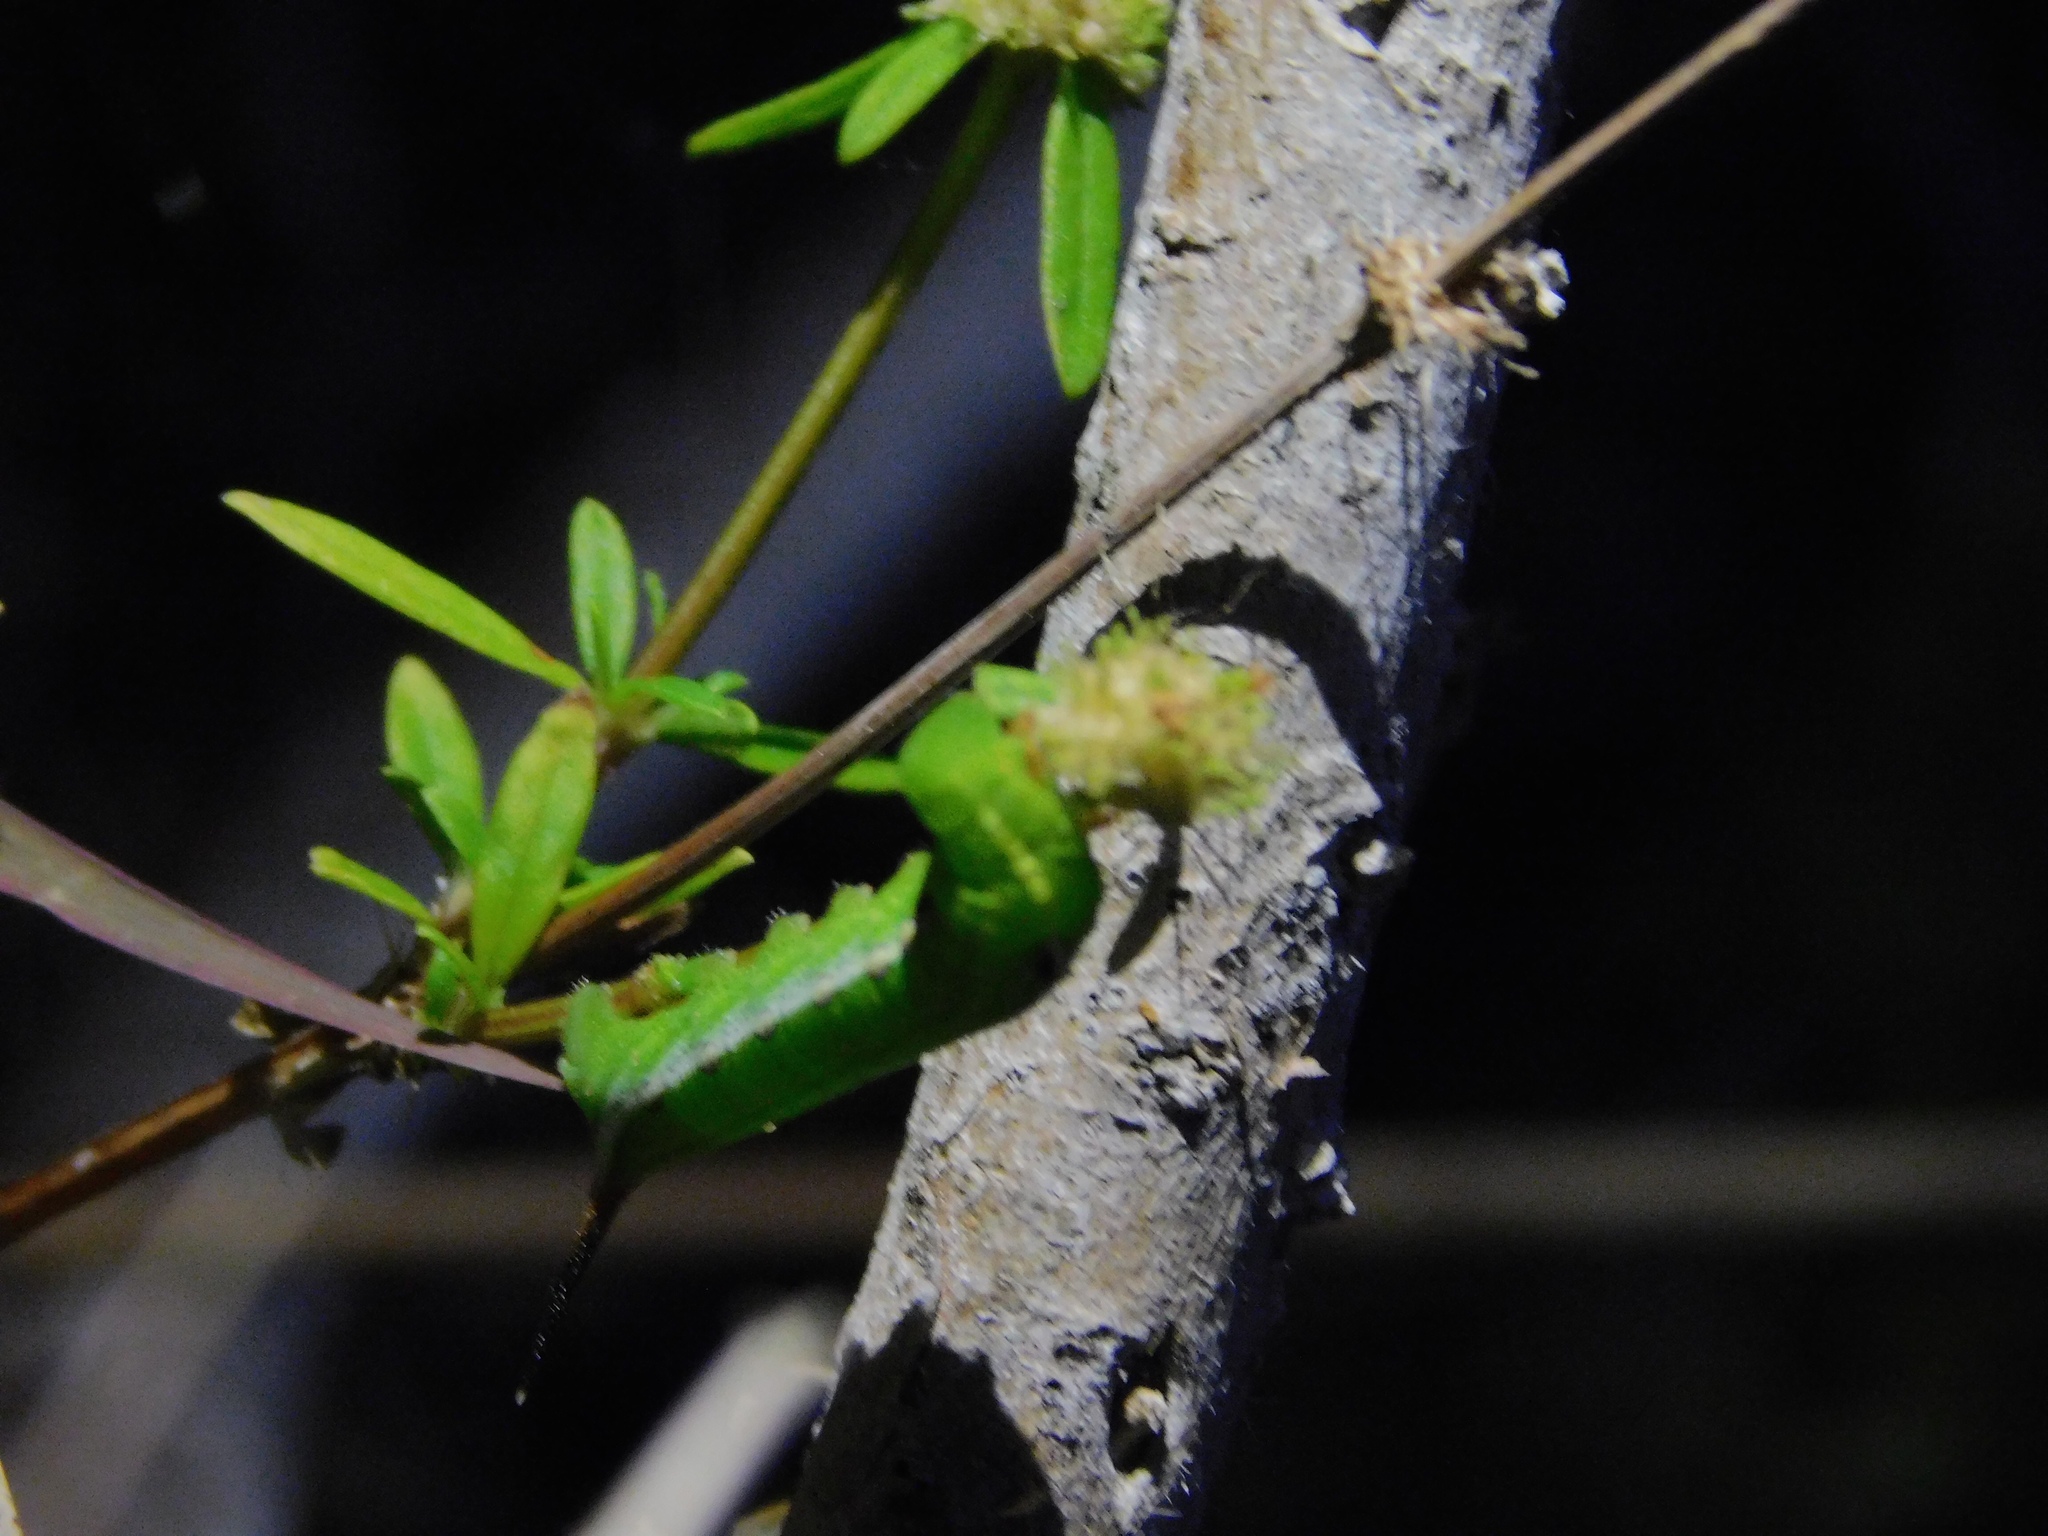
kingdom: Animalia
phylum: Arthropoda
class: Insecta
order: Lepidoptera
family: Sphingidae
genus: Xylophanes
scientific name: Xylophanes tersa
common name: Tersa sphinx
